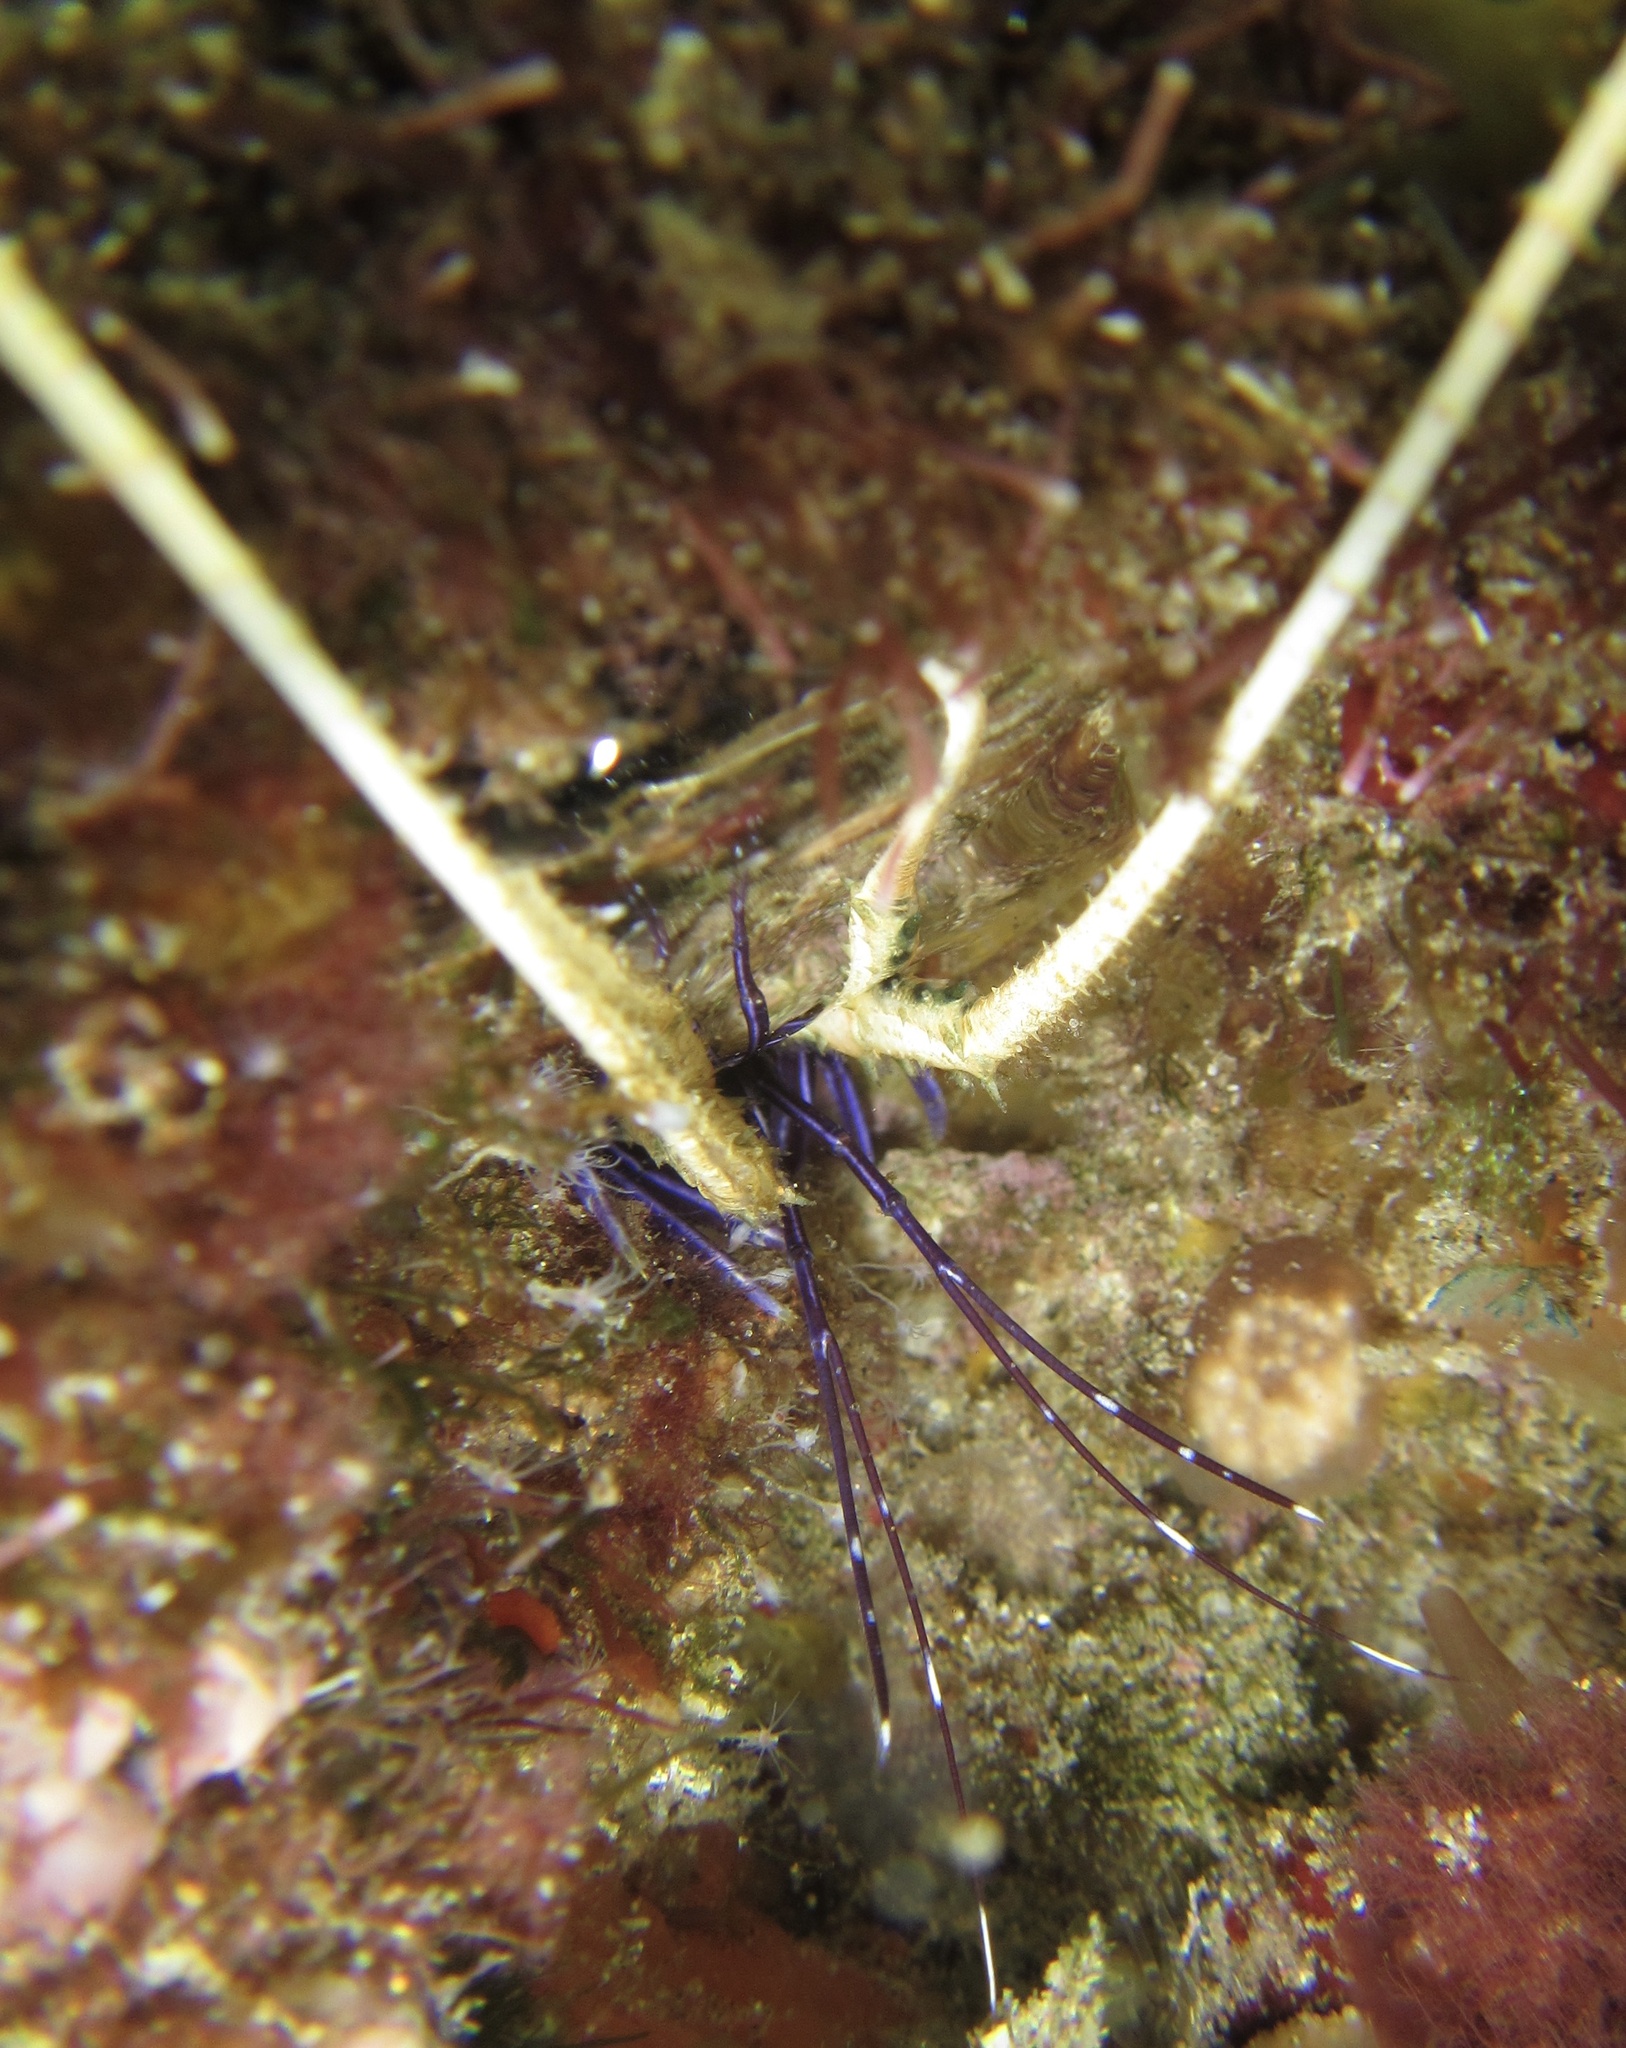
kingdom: Animalia
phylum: Arthropoda
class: Malacostraca
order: Decapoda
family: Palinuridae
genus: Panulirus
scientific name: Panulirus versicolor
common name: Painted spiny lobster
